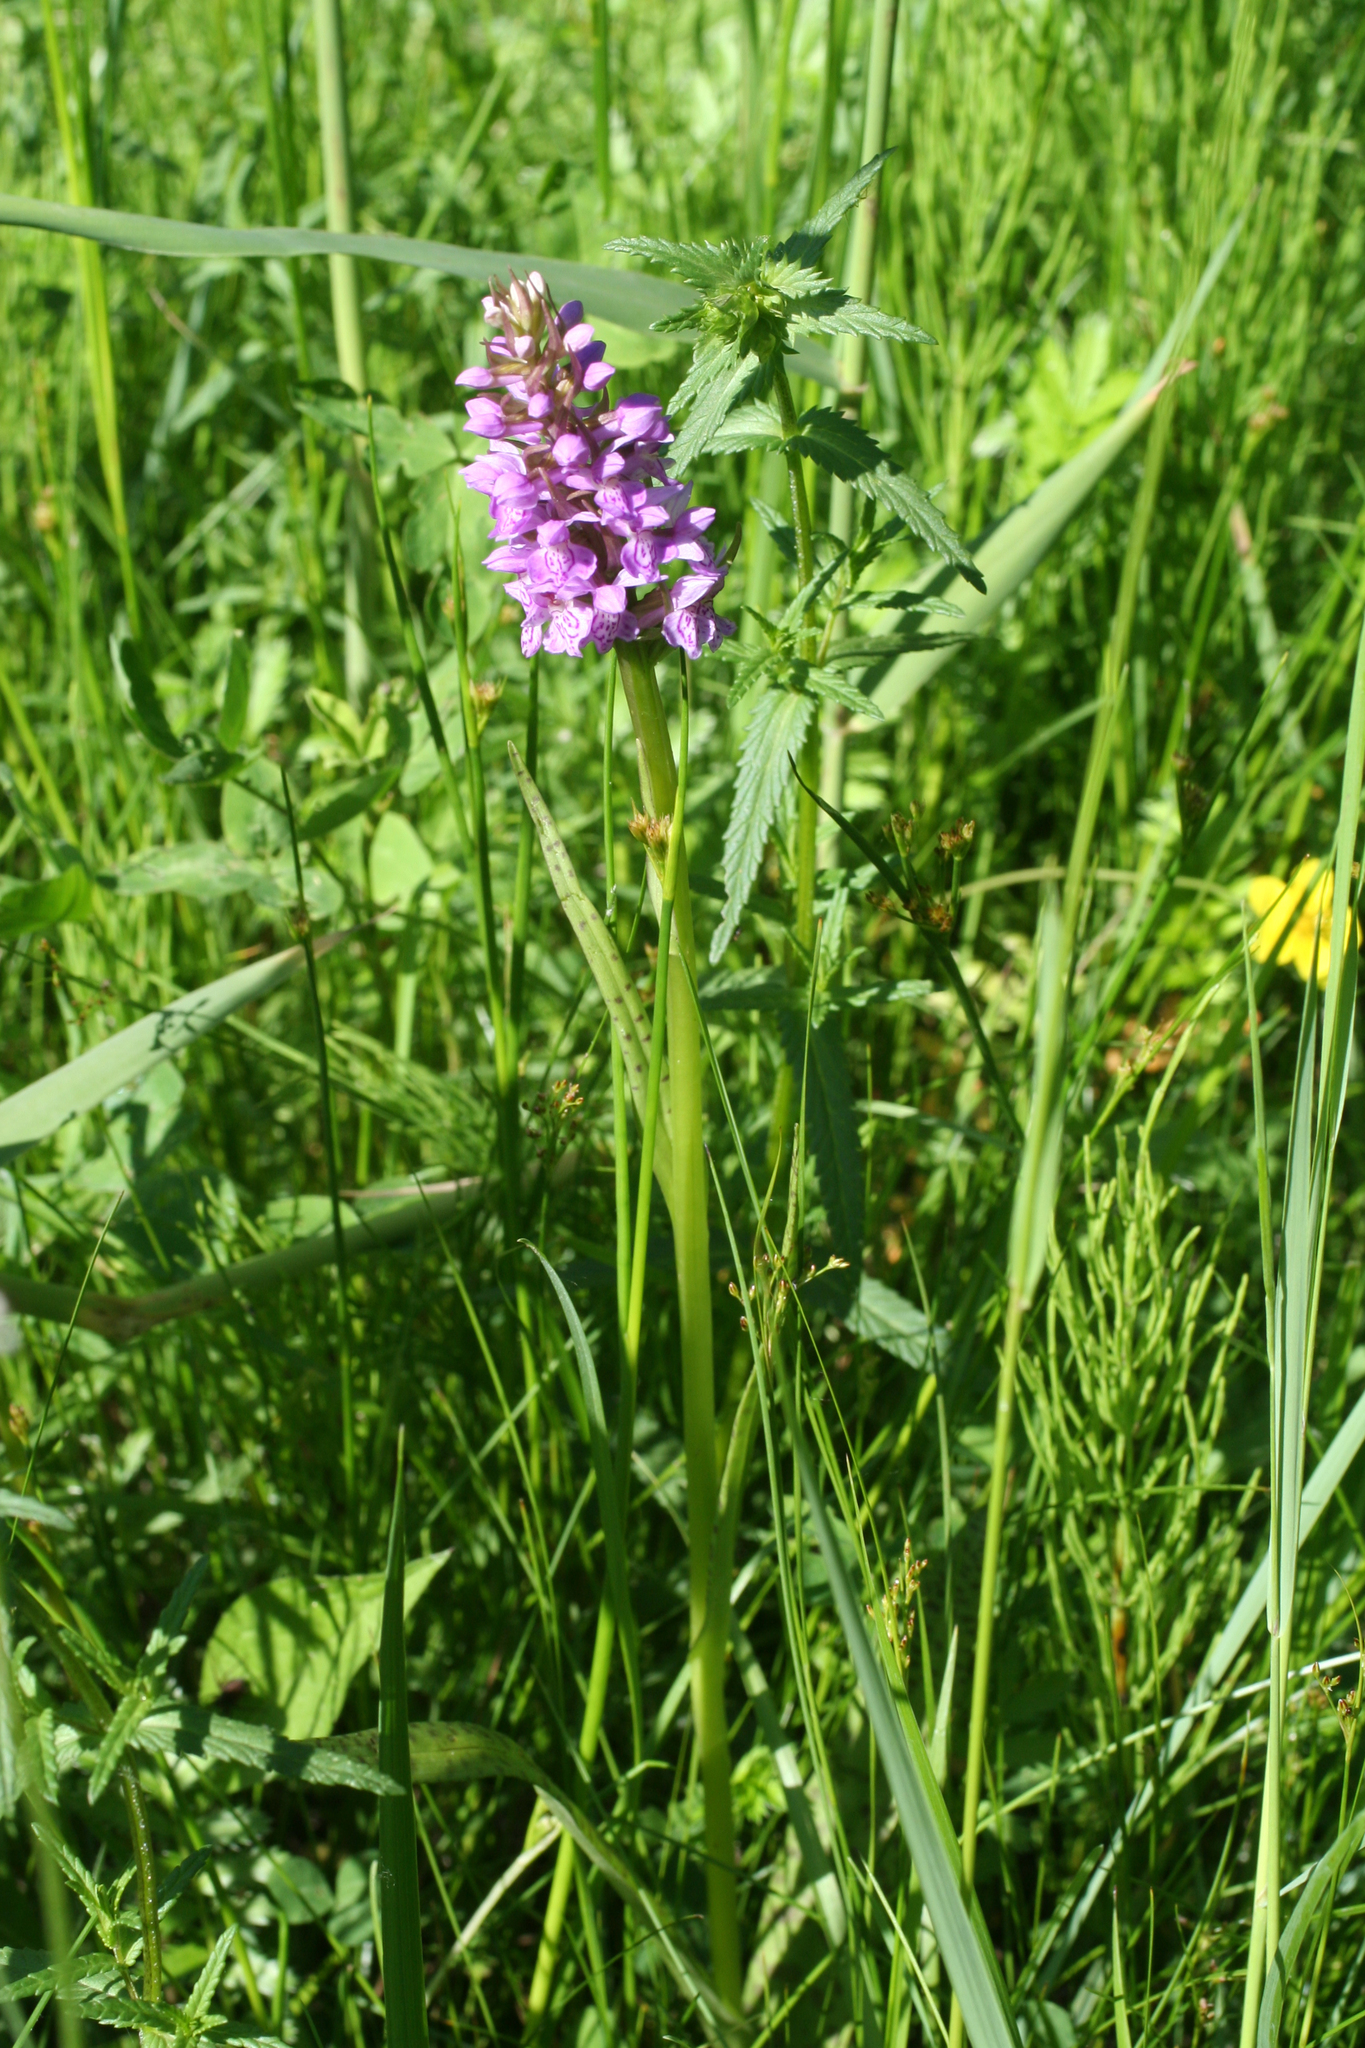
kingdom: Plantae
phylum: Tracheophyta
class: Liliopsida
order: Asparagales
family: Orchidaceae
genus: Dactylorhiza
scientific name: Dactylorhiza majalis
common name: Marsh orchid
